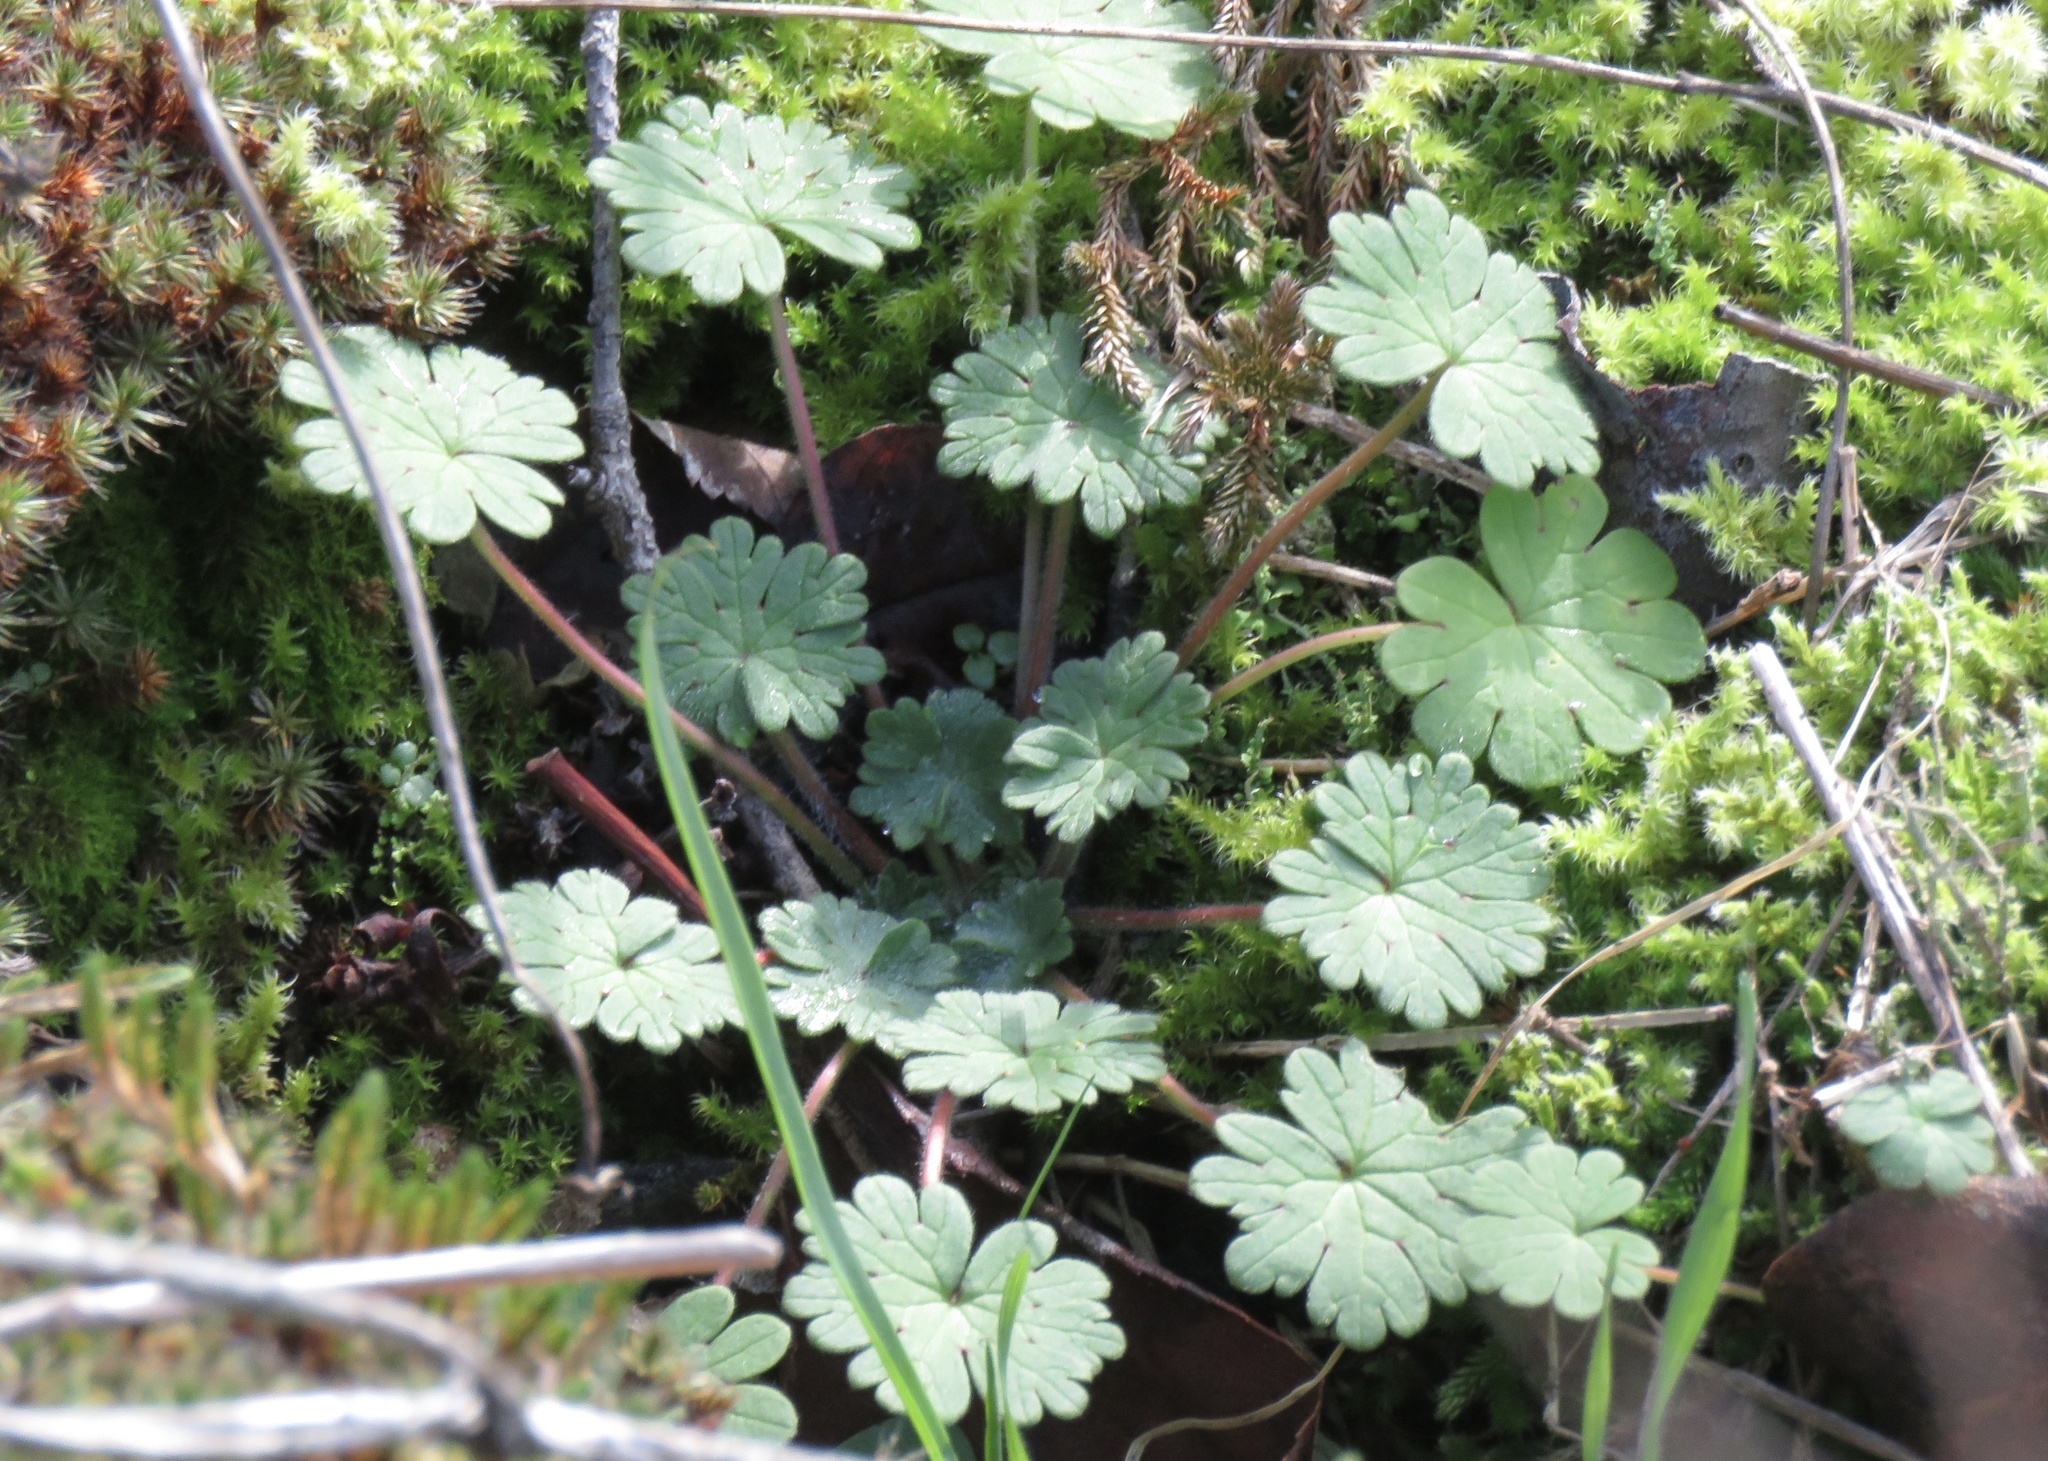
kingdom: Plantae
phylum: Tracheophyta
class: Magnoliopsida
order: Geraniales
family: Geraniaceae
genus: Geranium
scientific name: Geranium molle
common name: Dove's-foot crane's-bill
